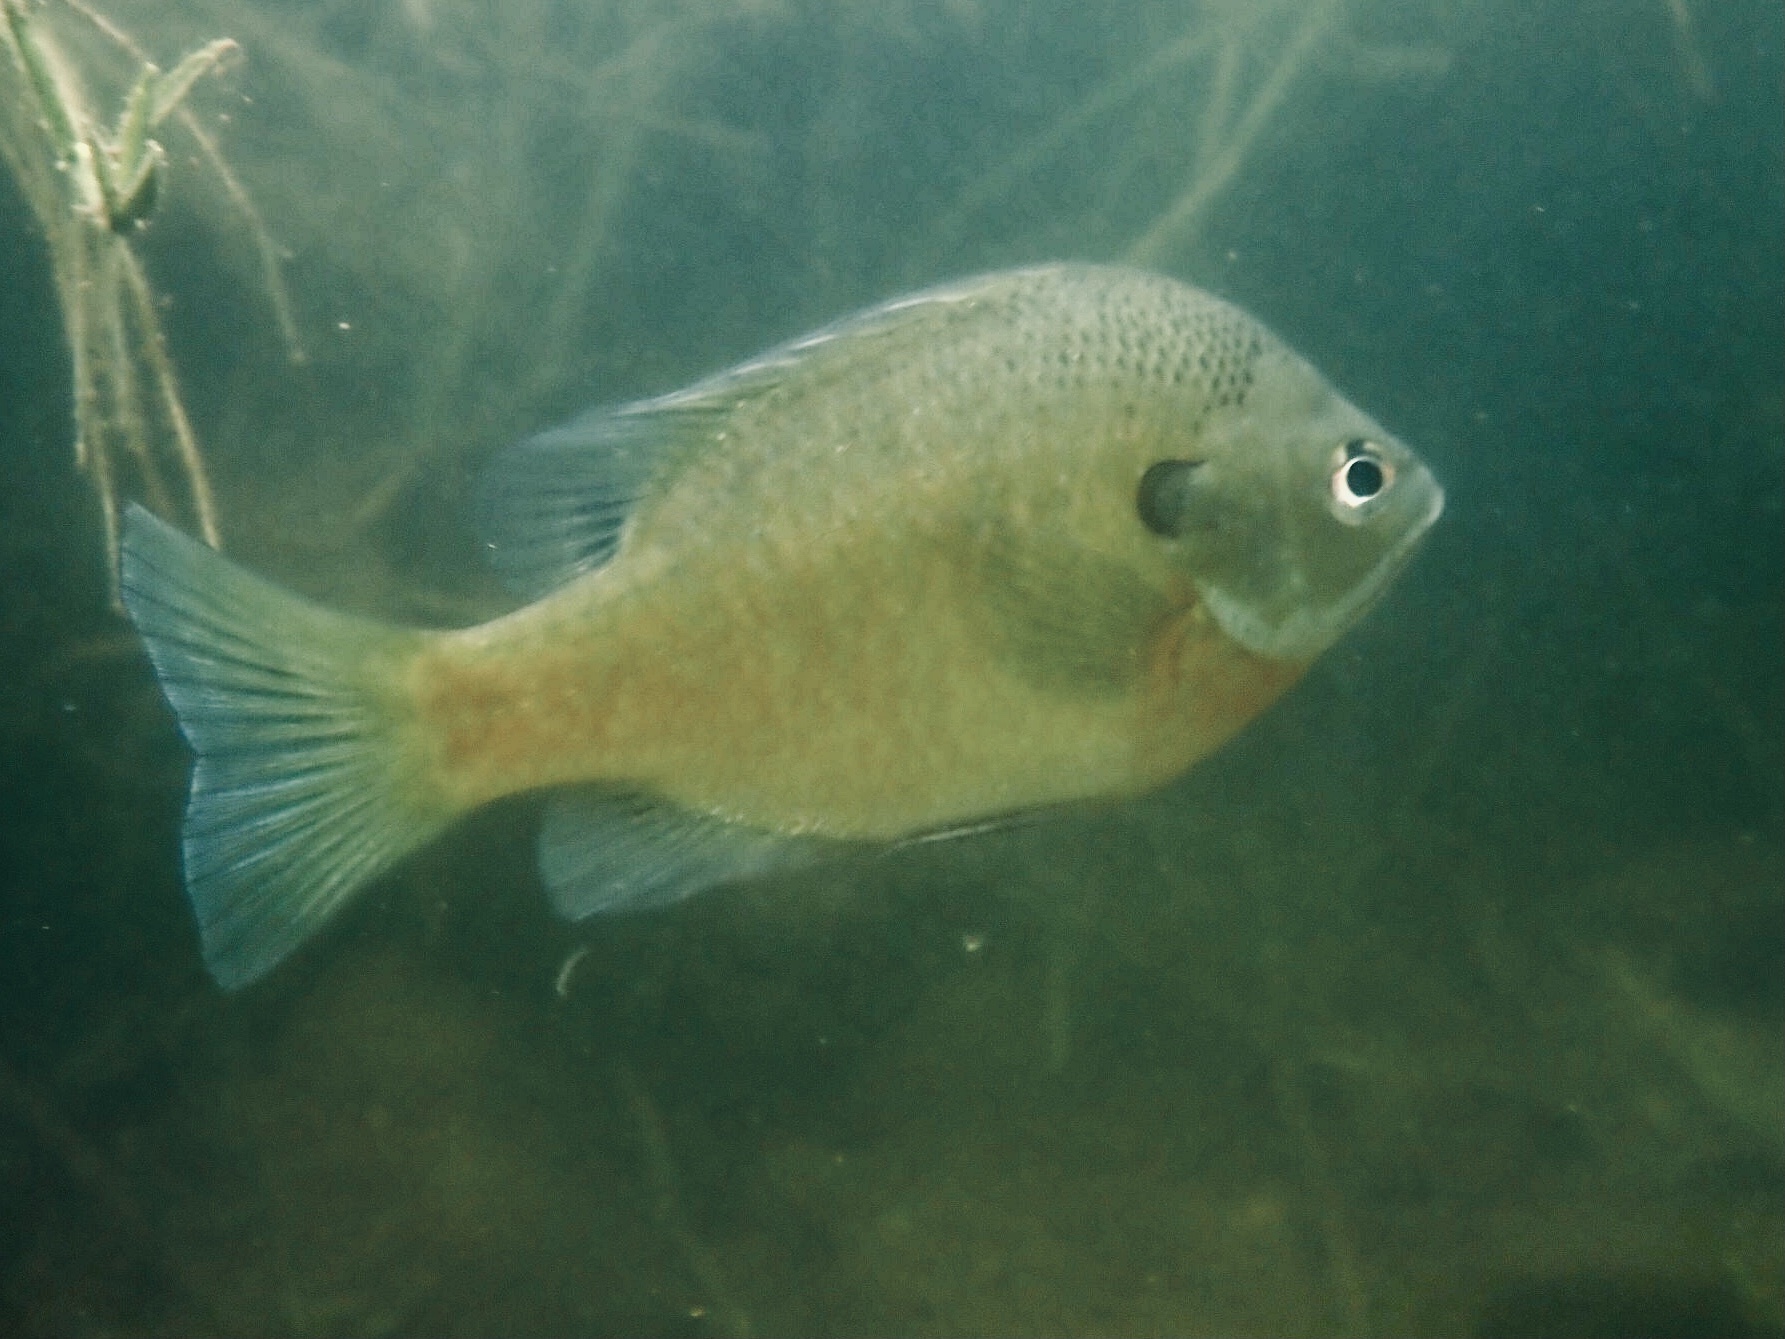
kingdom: Animalia
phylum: Chordata
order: Perciformes
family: Centrarchidae
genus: Lepomis
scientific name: Lepomis macrochirus
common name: Bluegill
